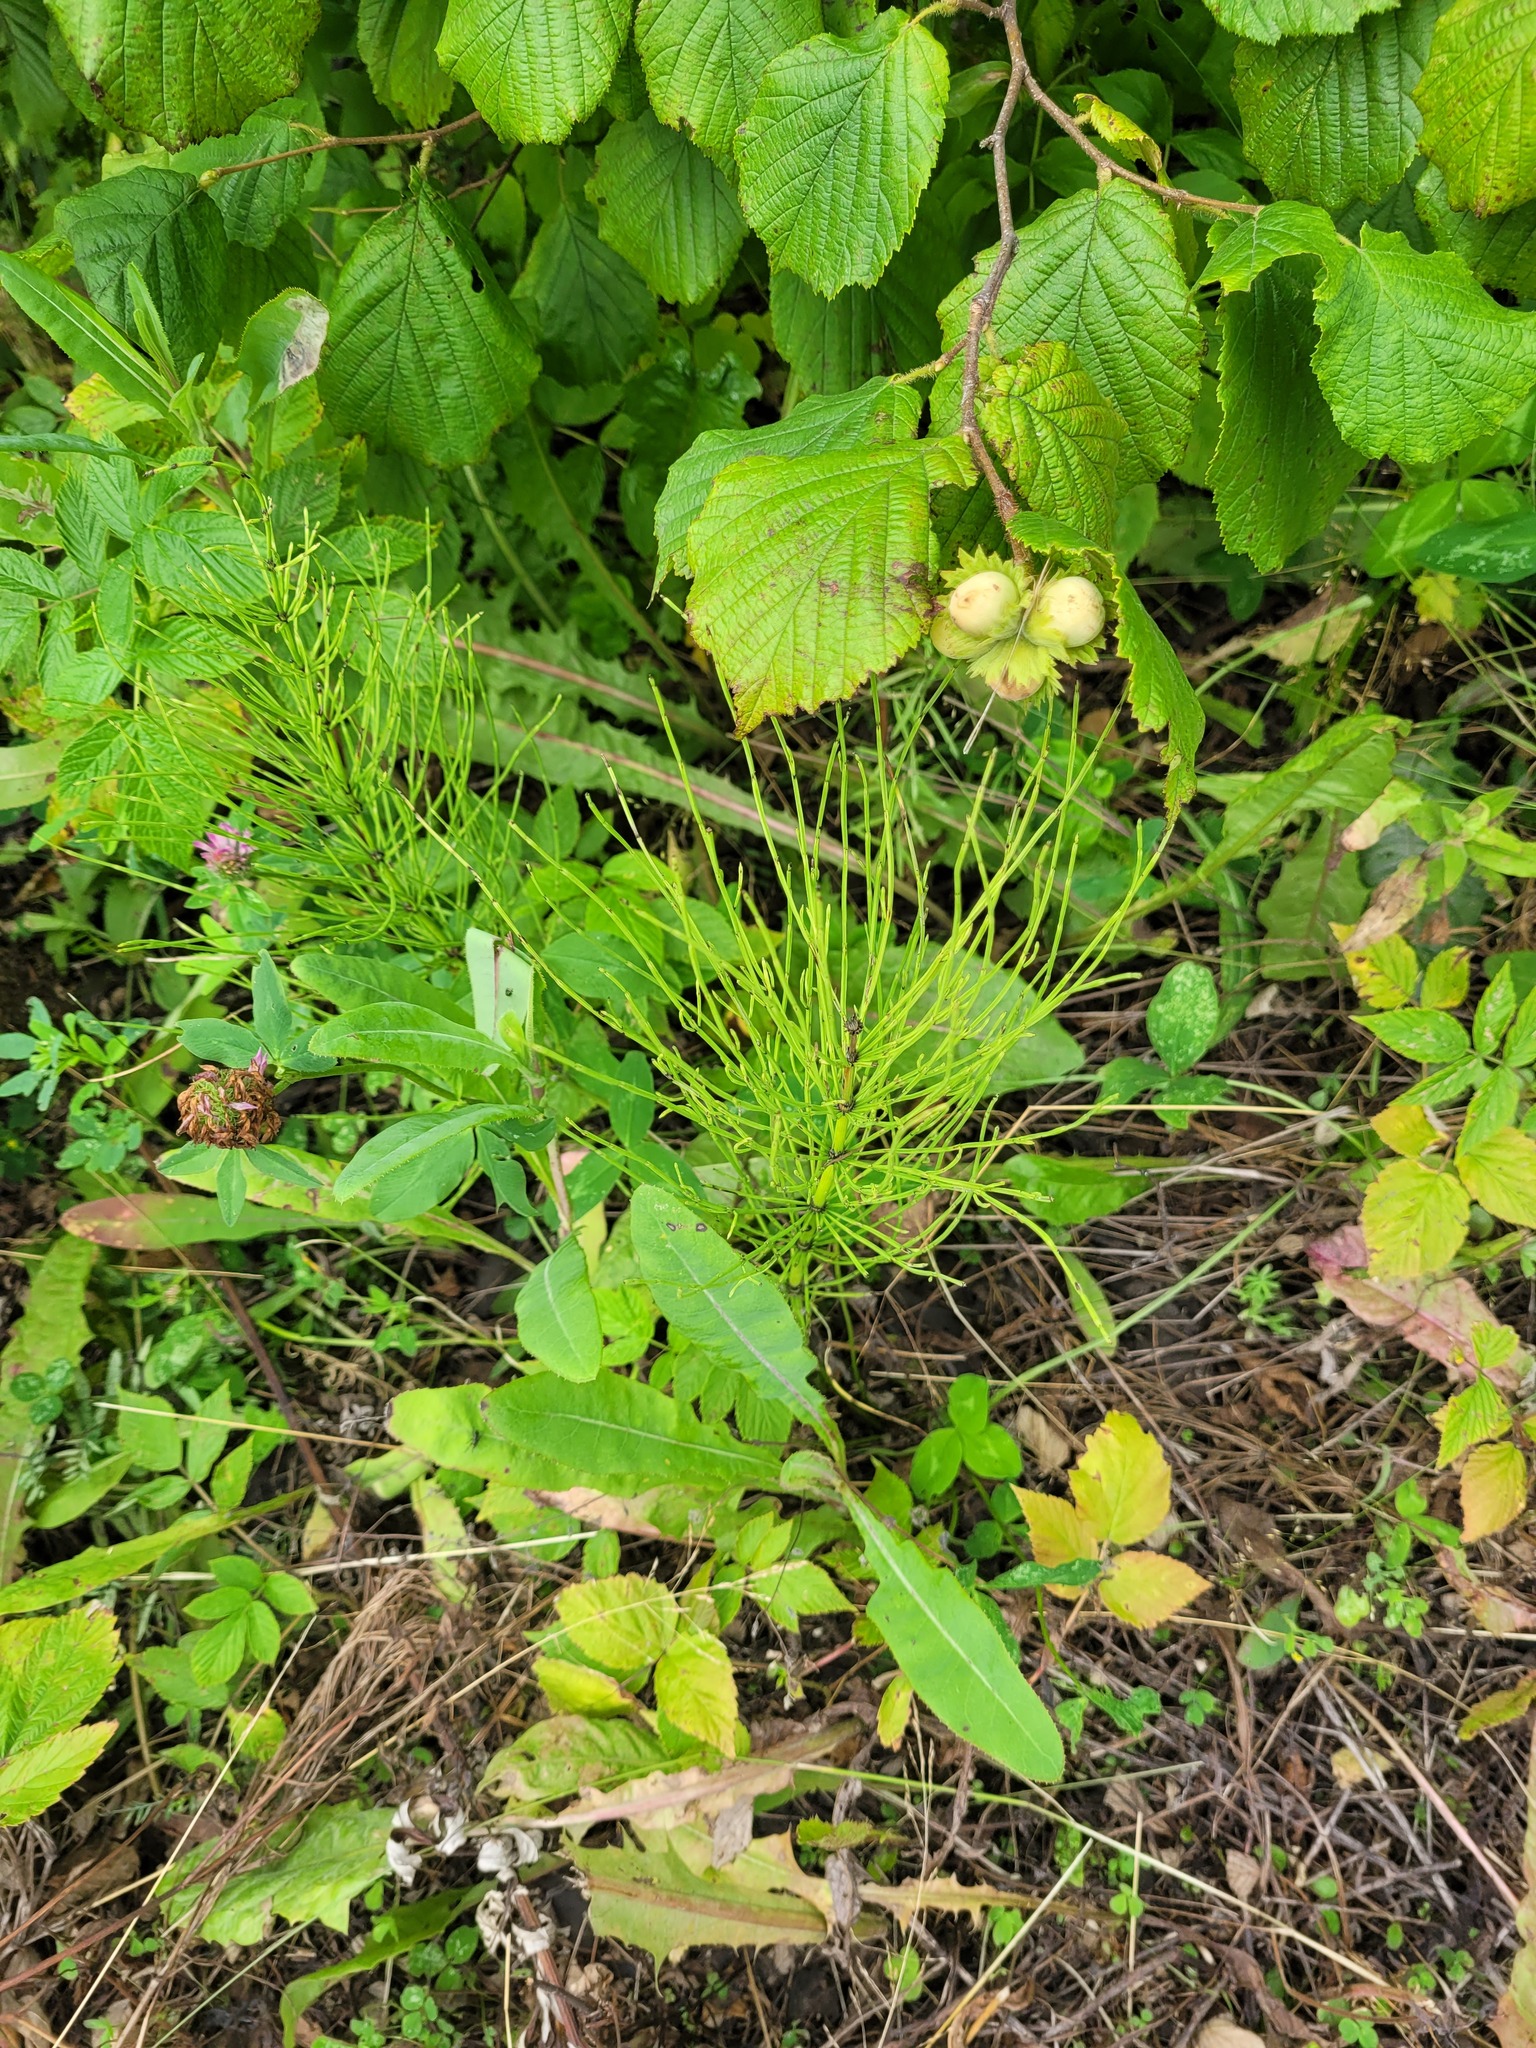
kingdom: Plantae
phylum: Tracheophyta
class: Polypodiopsida
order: Equisetales
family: Equisetaceae
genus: Equisetum
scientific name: Equisetum arvense
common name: Field horsetail
